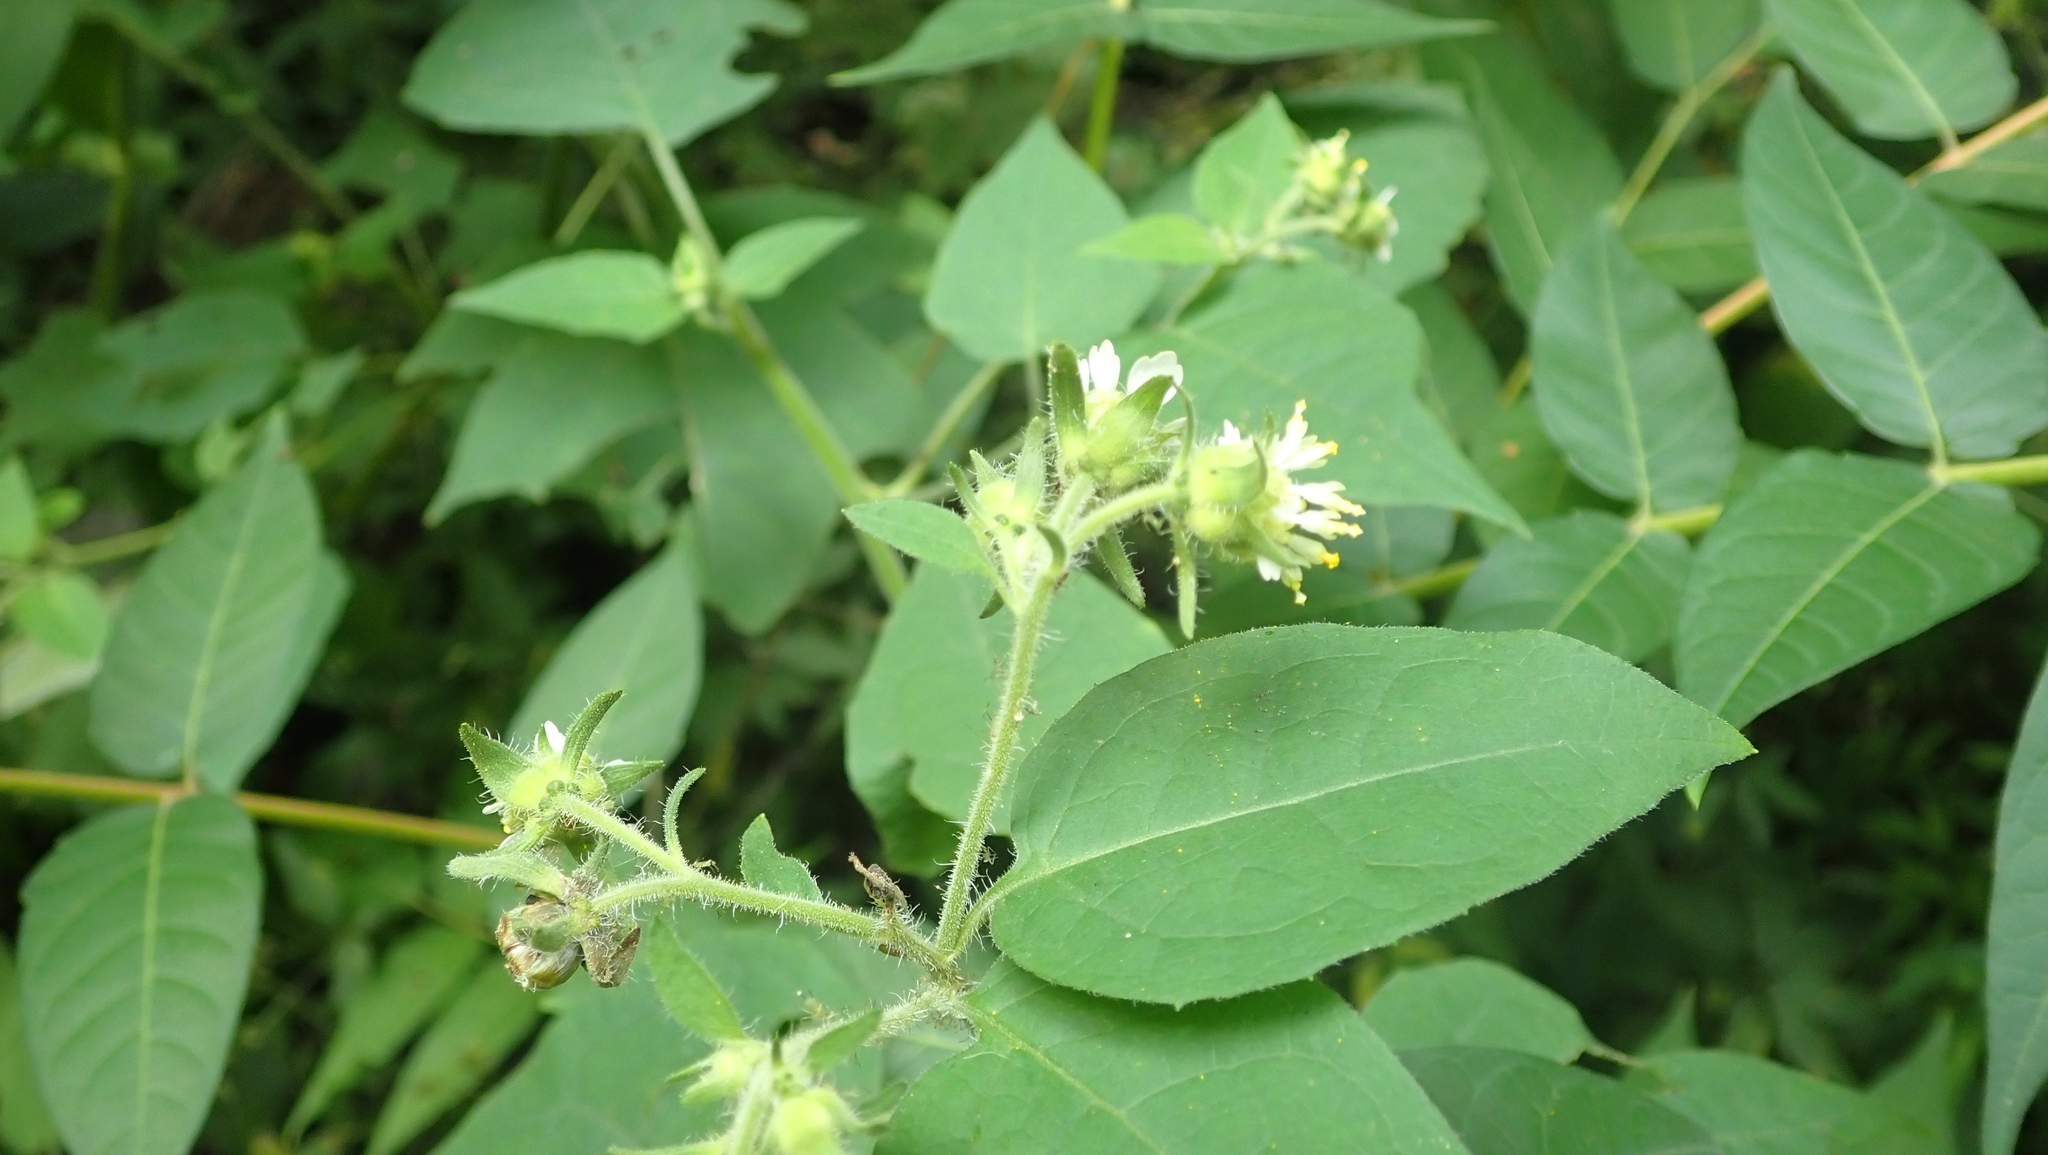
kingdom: Plantae
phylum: Tracheophyta
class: Magnoliopsida
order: Asterales
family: Asteraceae
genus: Polymnia
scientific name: Polymnia canadensis
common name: Pale-flowered leafcup
